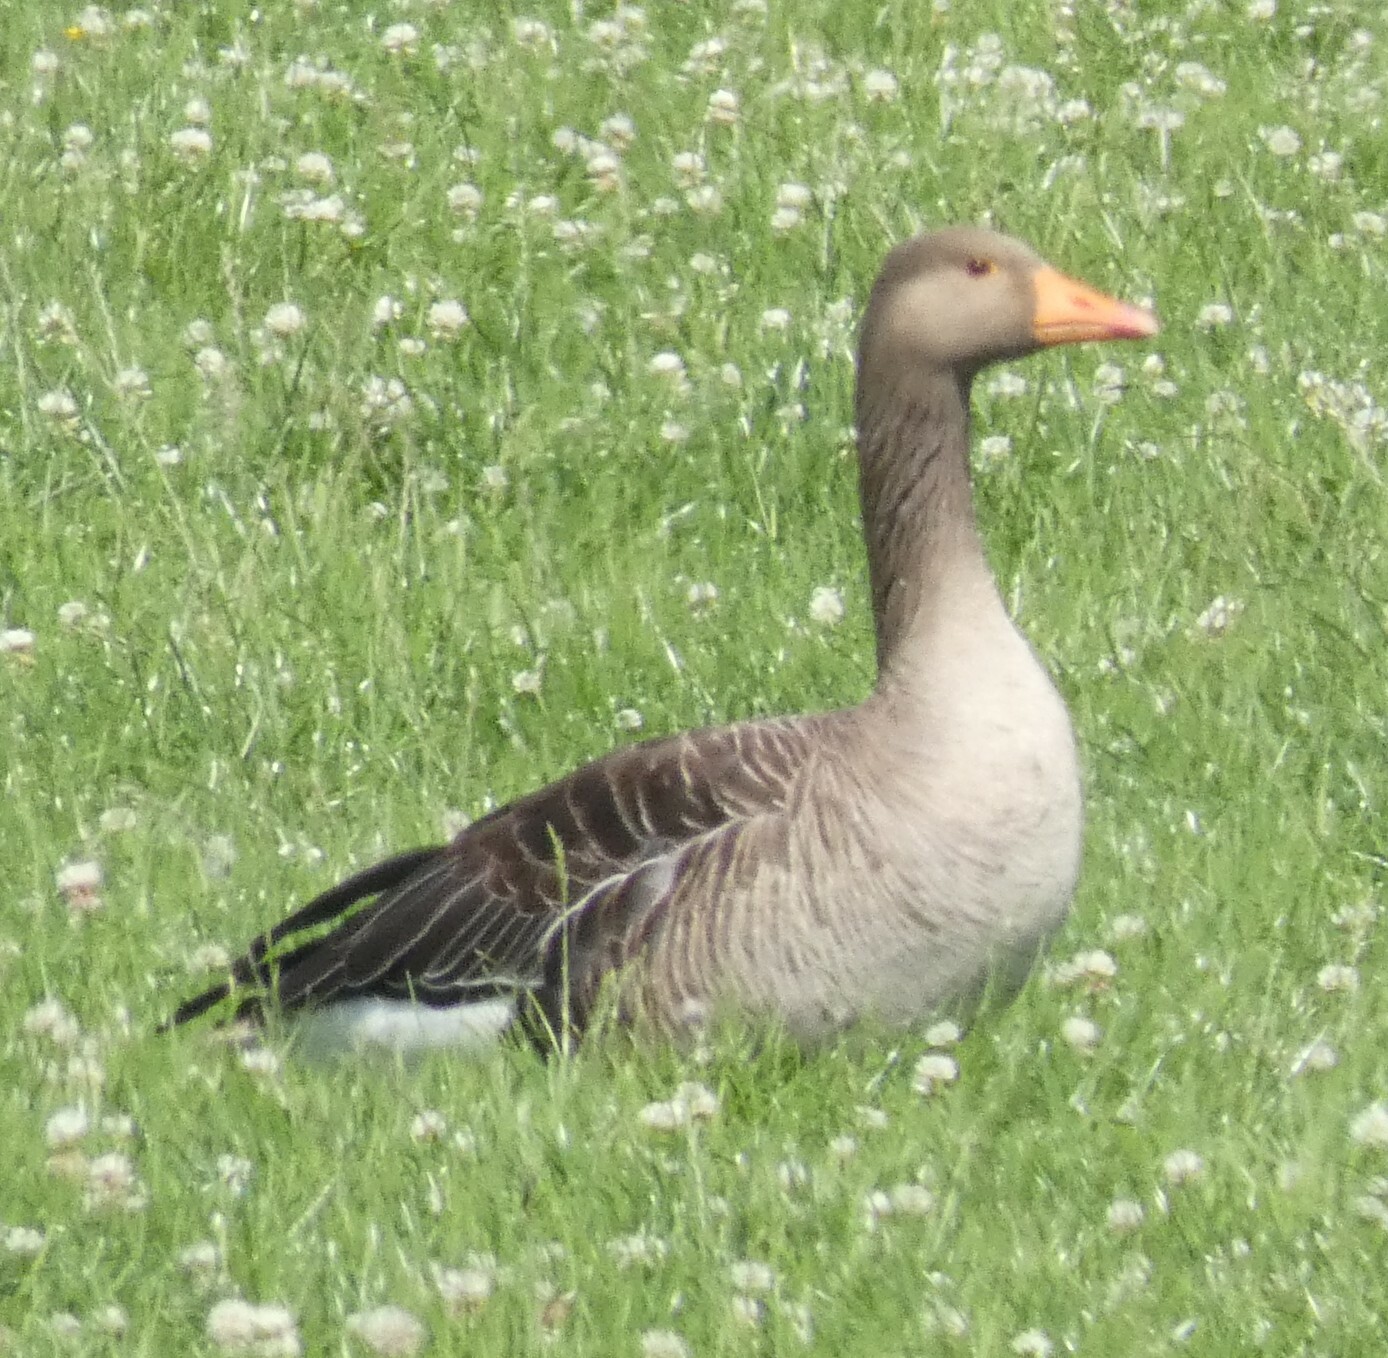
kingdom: Animalia
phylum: Chordata
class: Aves
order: Anseriformes
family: Anatidae
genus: Anser
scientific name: Anser anser
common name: Greylag goose
